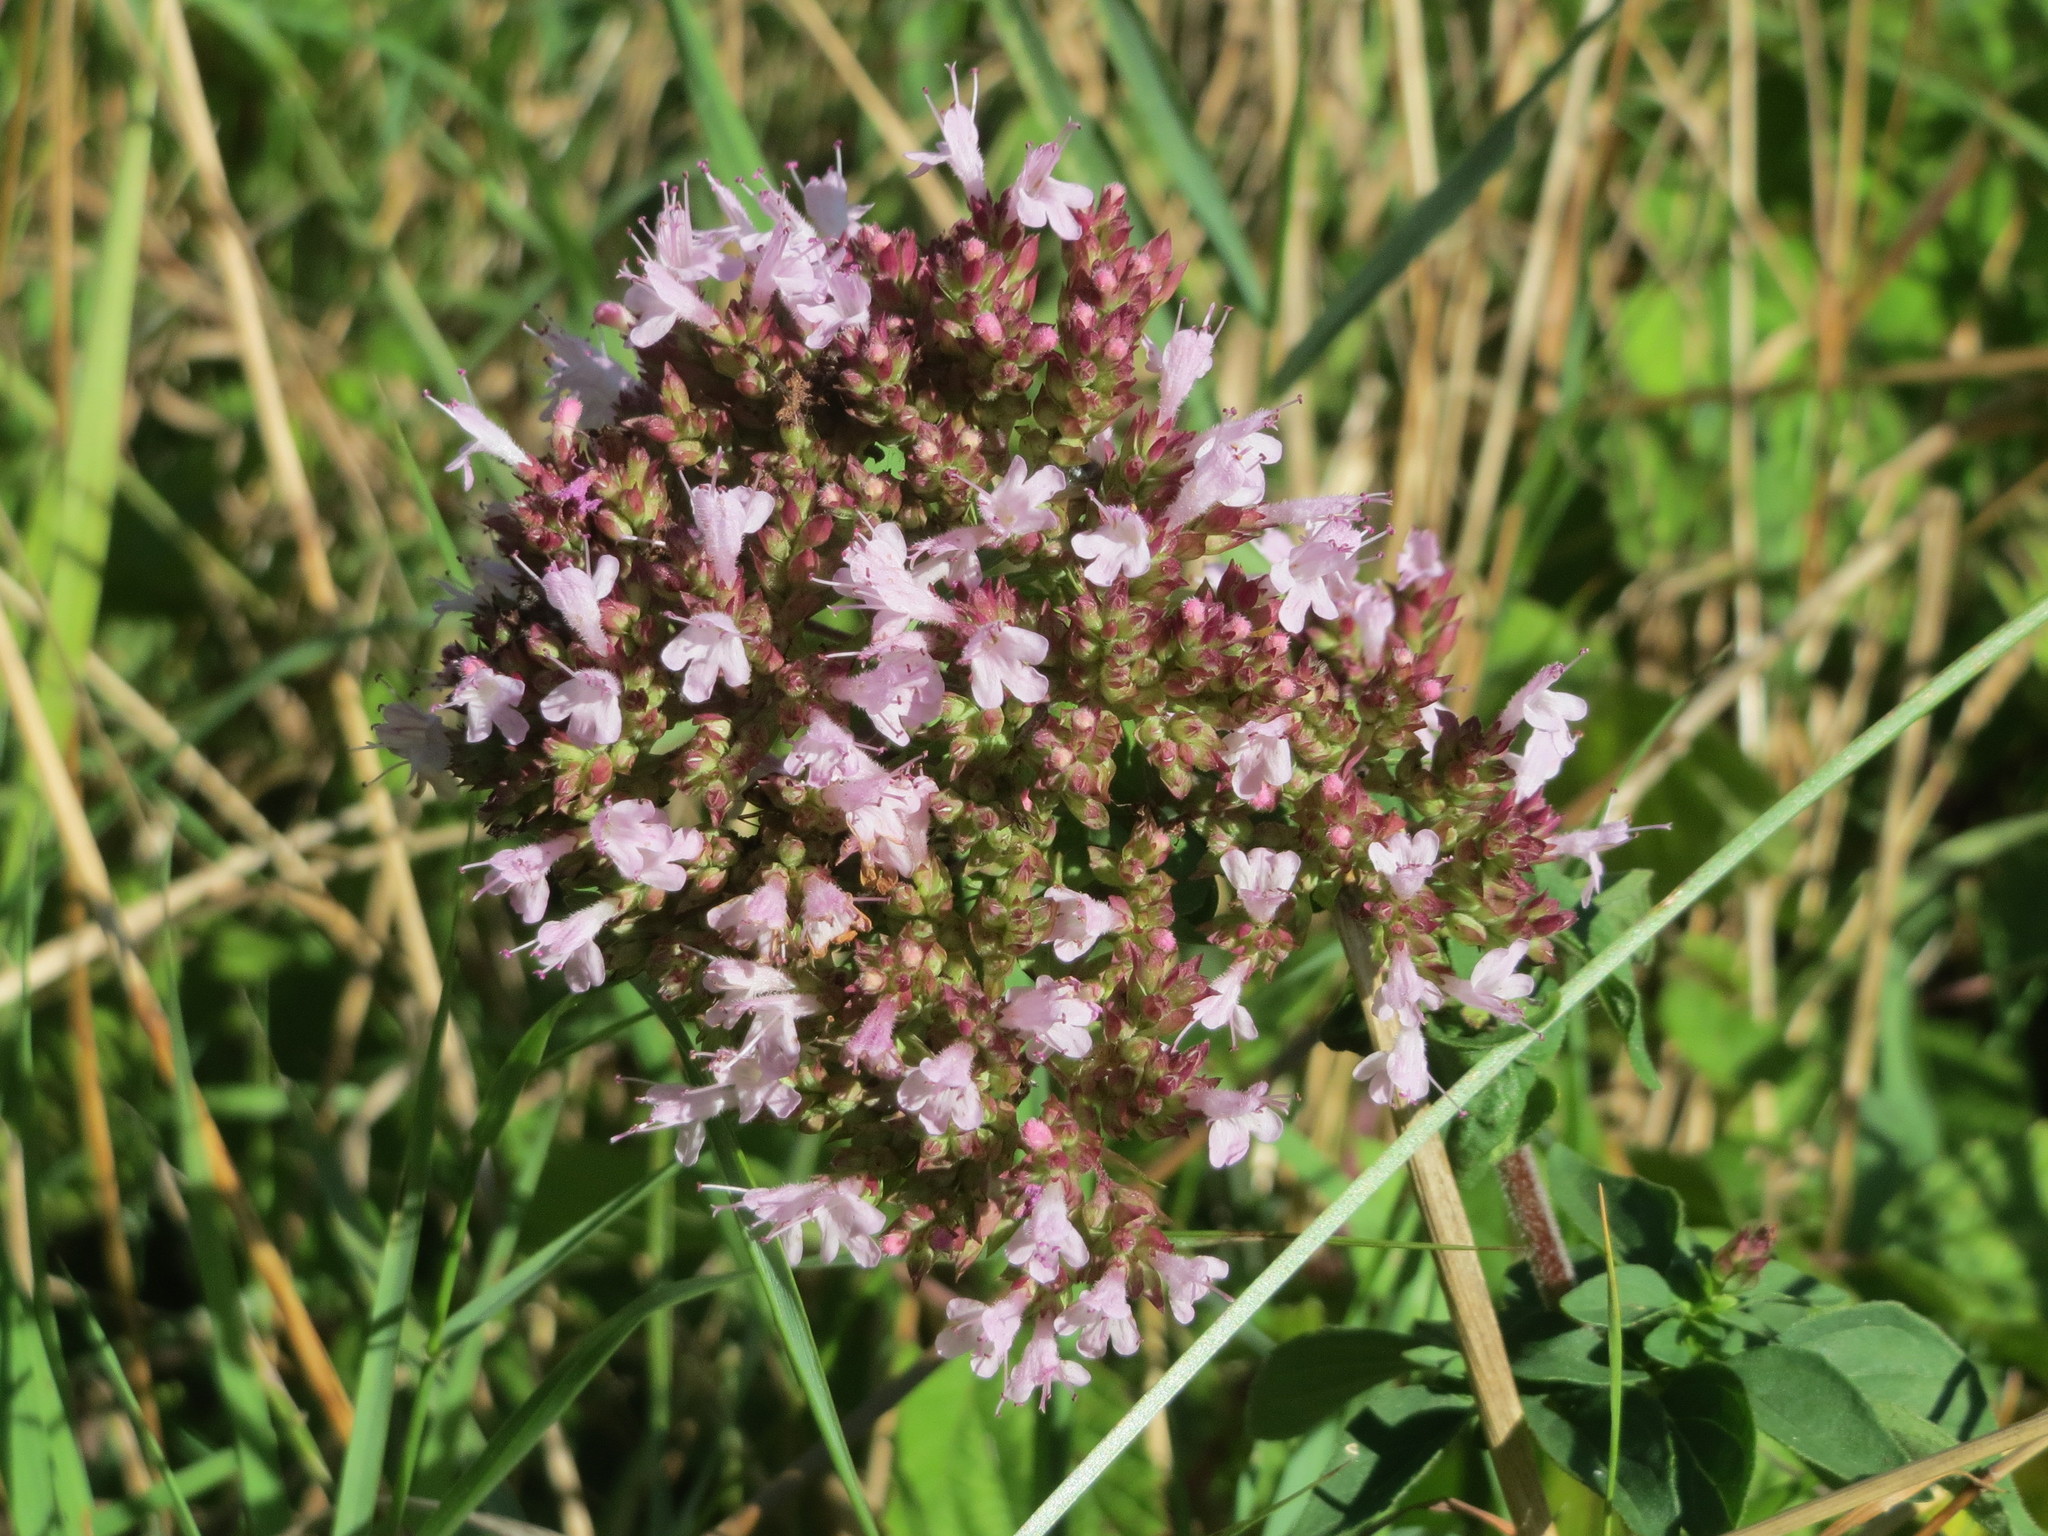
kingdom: Plantae
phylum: Tracheophyta
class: Magnoliopsida
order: Lamiales
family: Lamiaceae
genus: Origanum
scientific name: Origanum vulgare
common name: Wild marjoram
